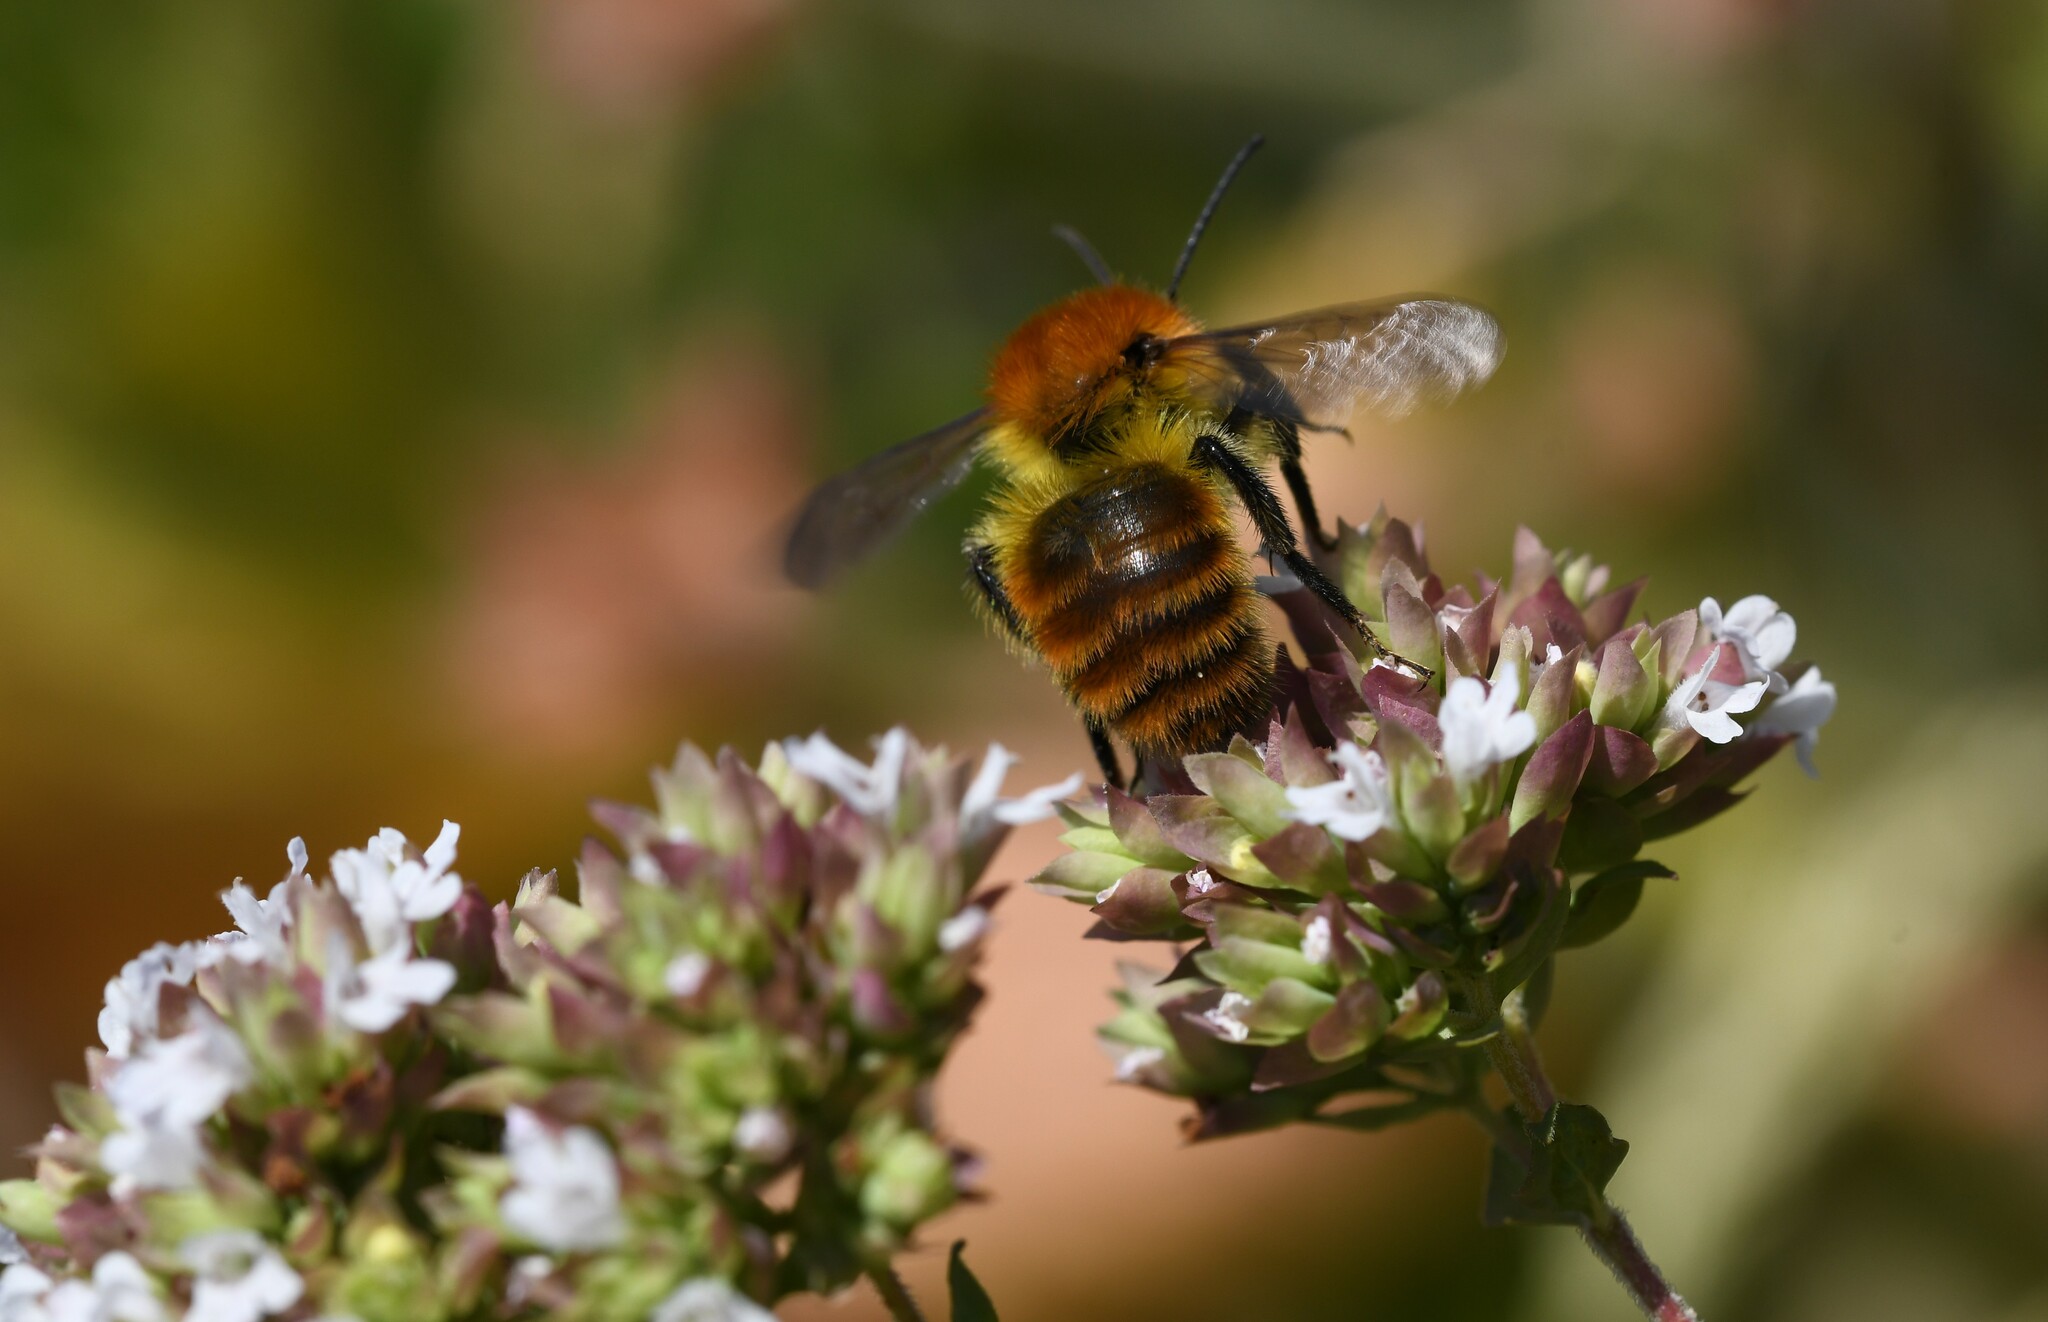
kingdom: Animalia
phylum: Arthropoda
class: Insecta
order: Hymenoptera
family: Apidae
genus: Bombus
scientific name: Bombus pascuorum
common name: Common carder bee
